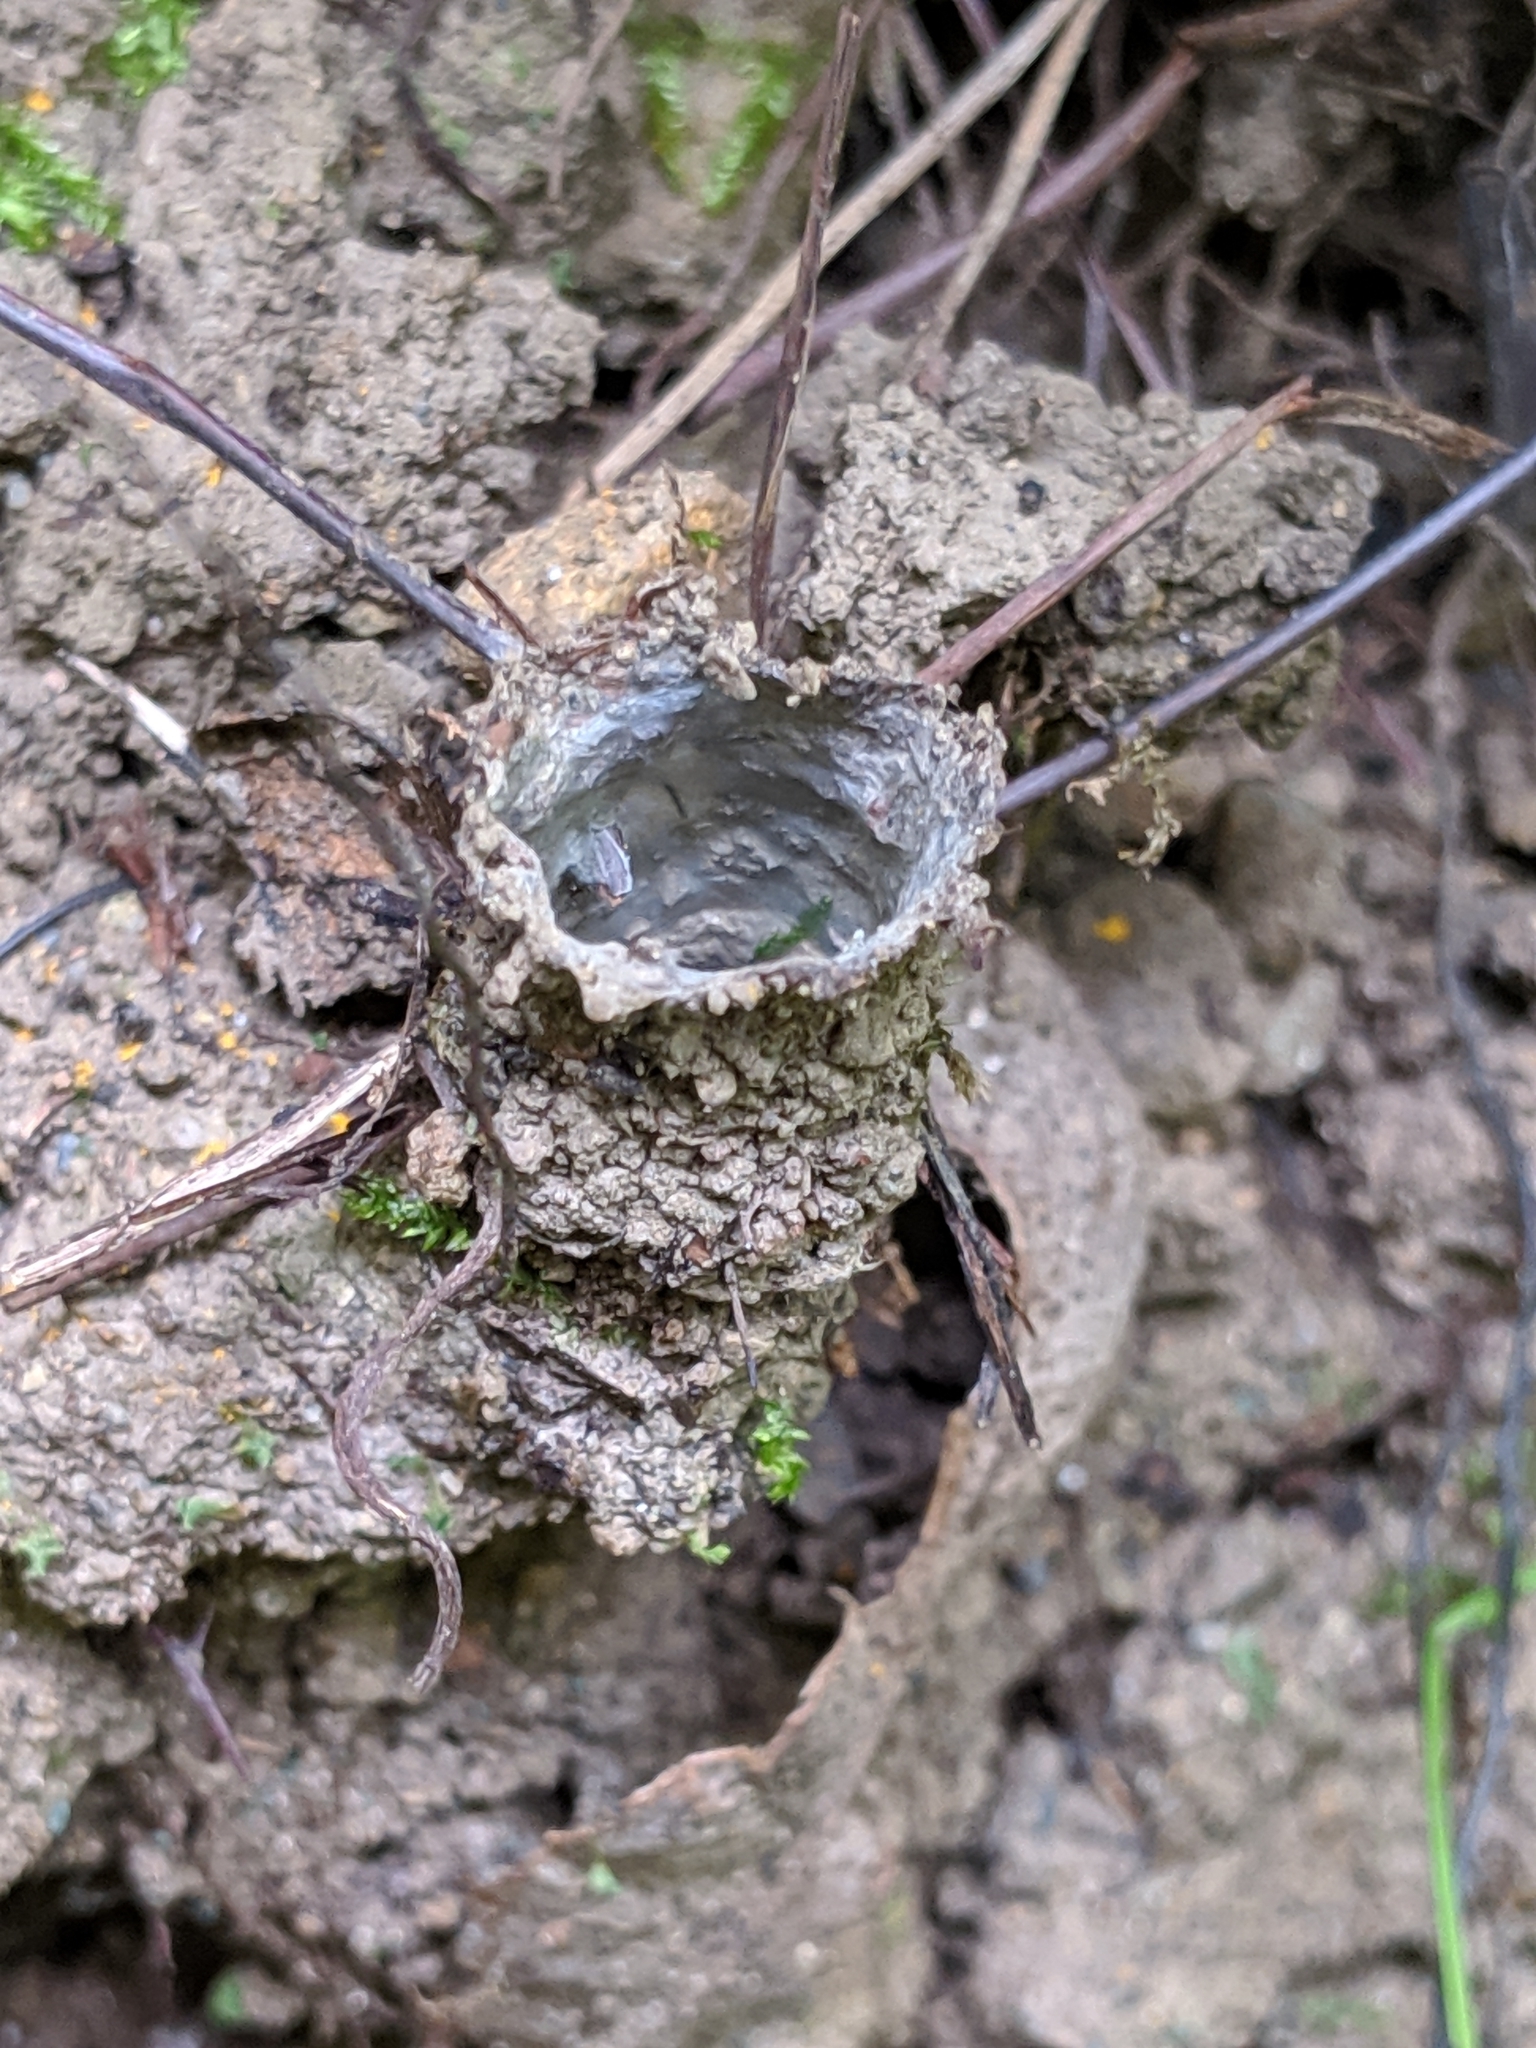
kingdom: Animalia
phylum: Arthropoda
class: Arachnida
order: Araneae
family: Antrodiaetidae
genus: Atypoides
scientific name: Atypoides riversi
